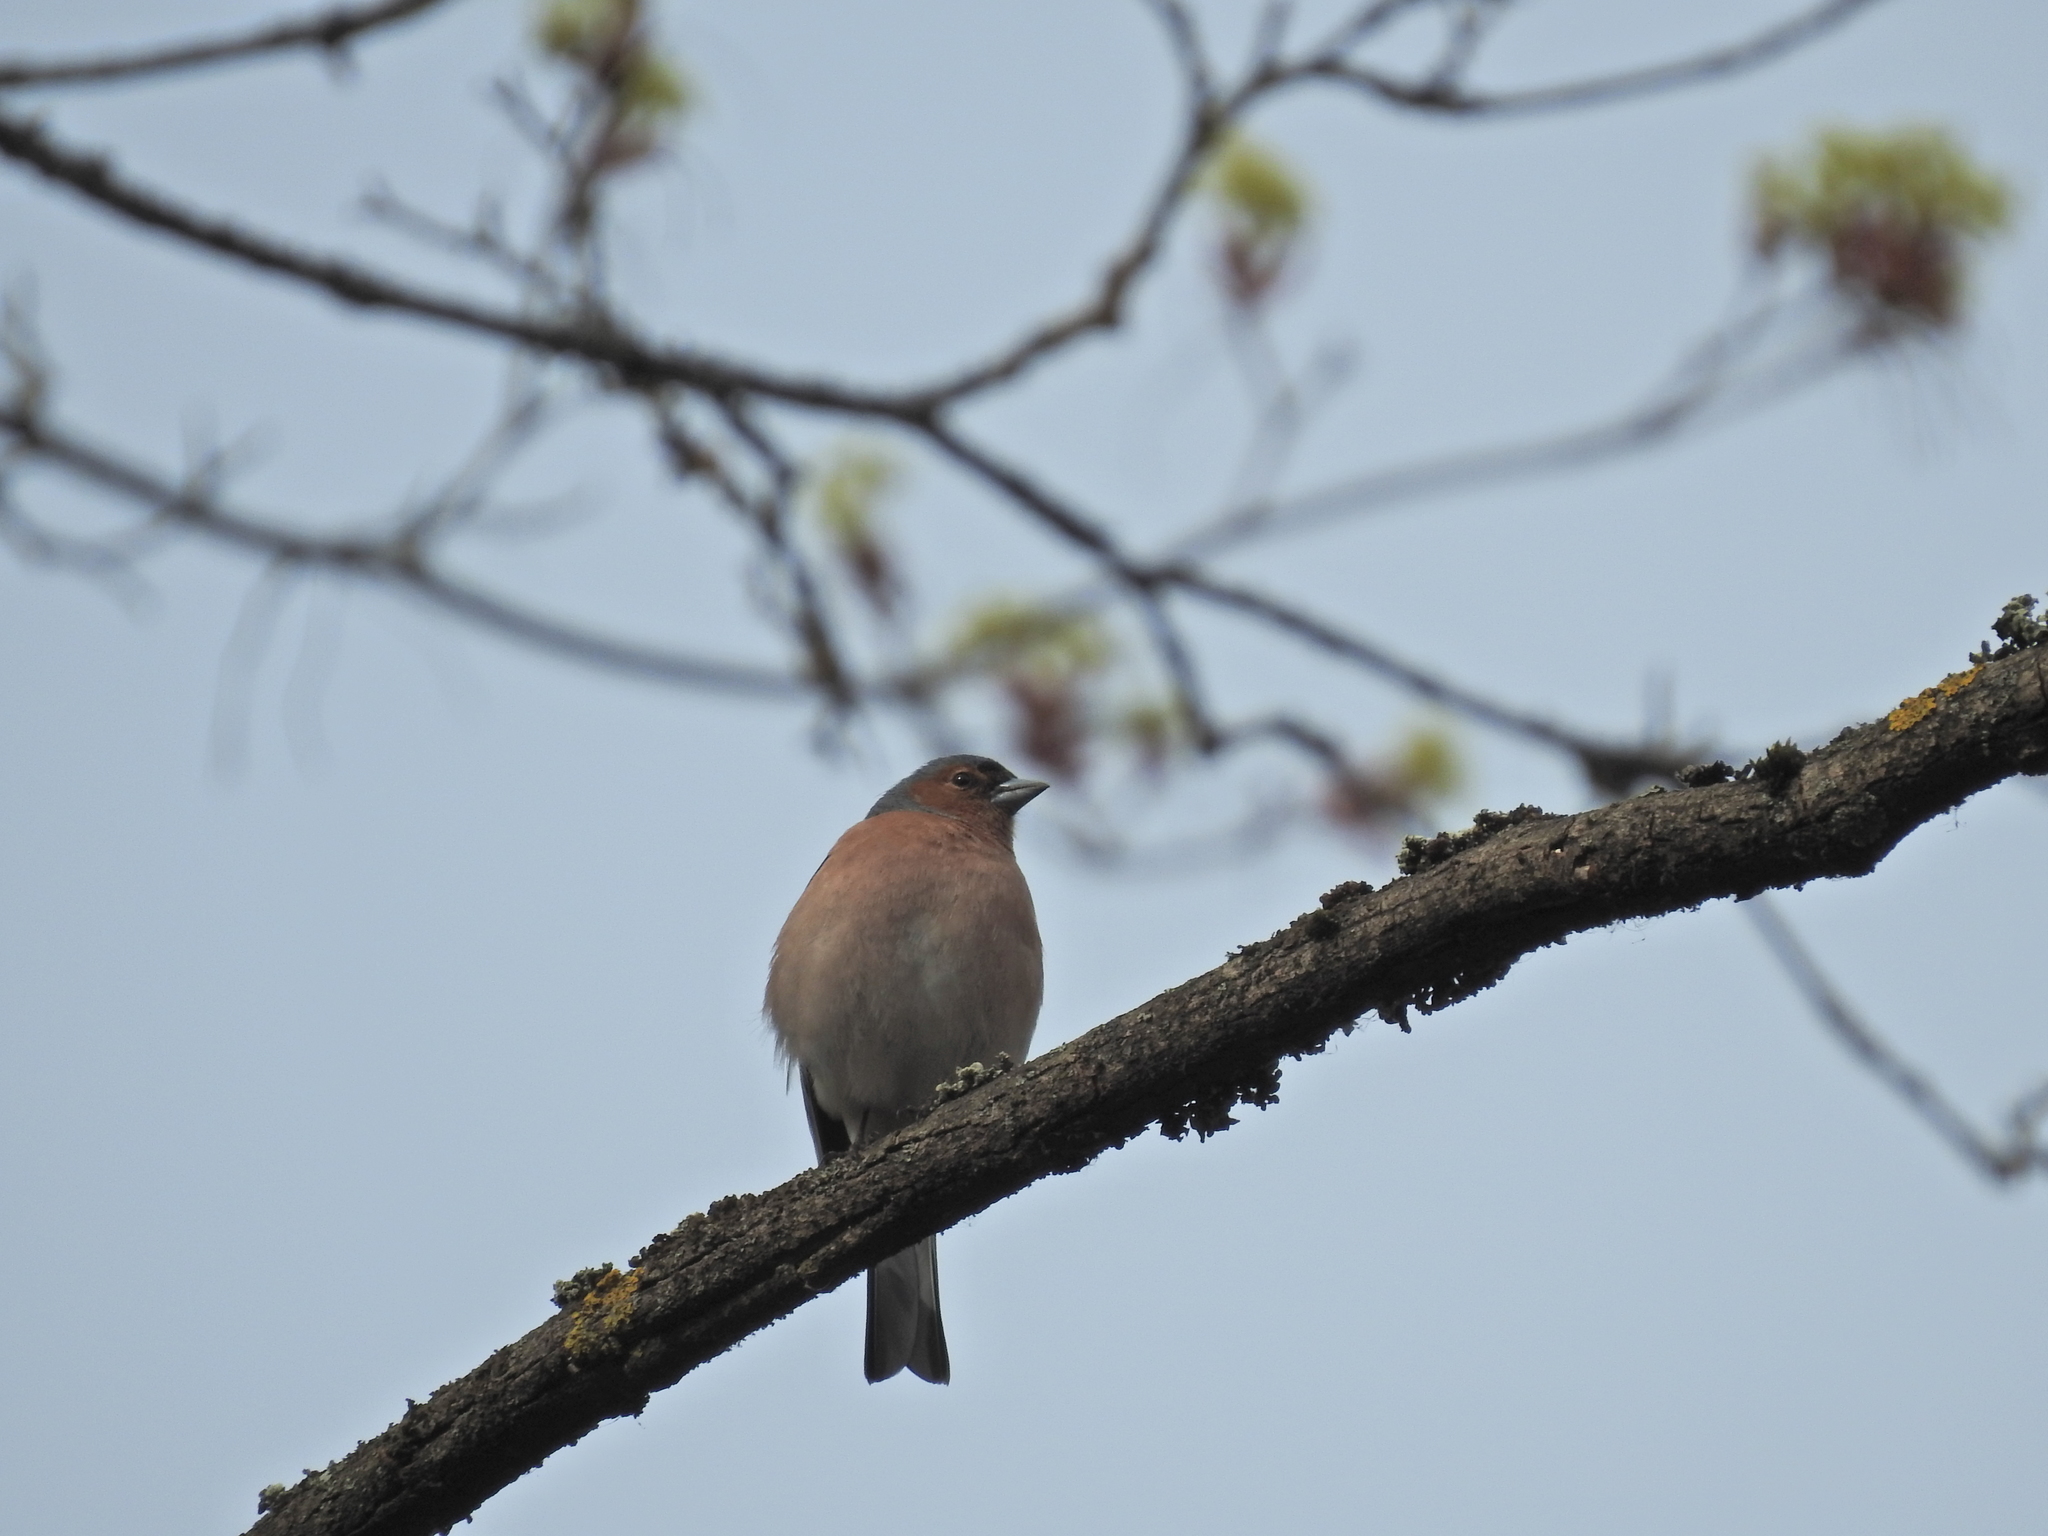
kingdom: Animalia
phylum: Chordata
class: Aves
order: Passeriformes
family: Fringillidae
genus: Fringilla
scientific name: Fringilla coelebs
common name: Common chaffinch
